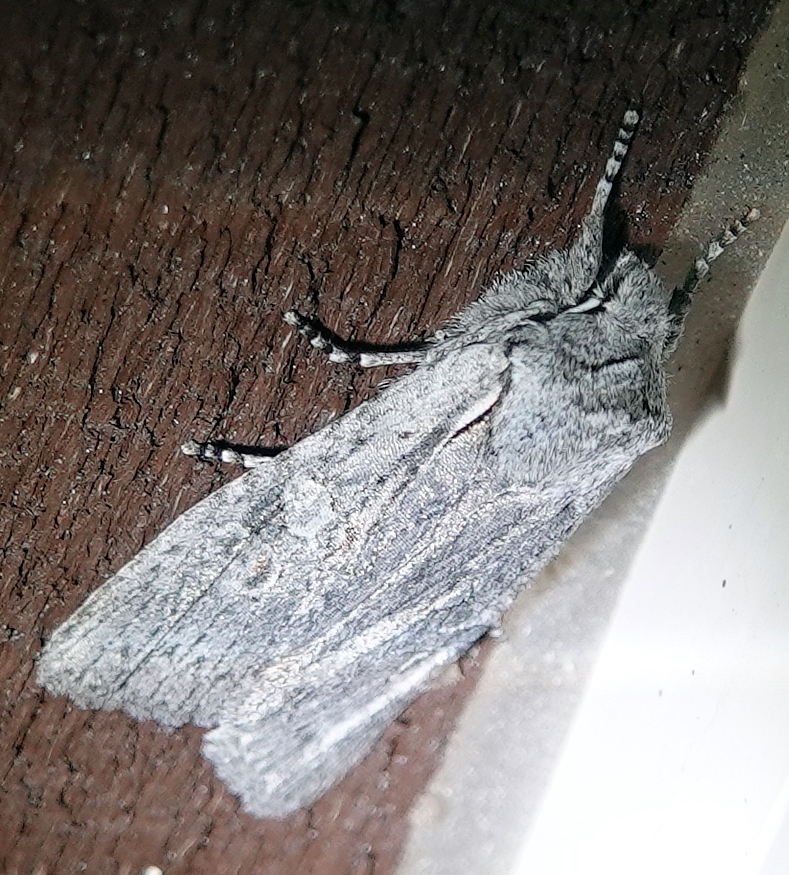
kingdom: Animalia
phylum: Arthropoda
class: Insecta
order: Lepidoptera
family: Noctuidae
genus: Lithophane
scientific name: Lithophane georgii
